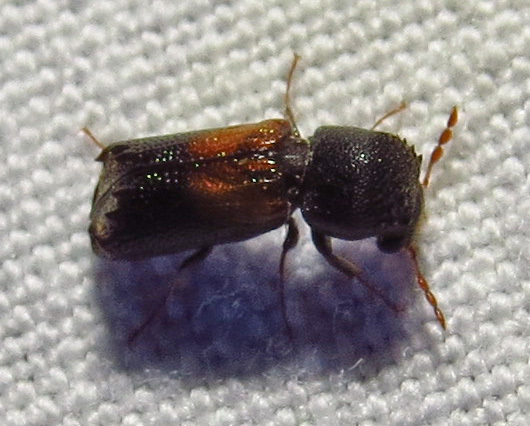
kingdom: Animalia
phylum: Arthropoda
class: Insecta
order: Coleoptera
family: Bostrichidae
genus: Xylobiops
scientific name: Xylobiops basilaris
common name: Red-shouldered bostrichid
